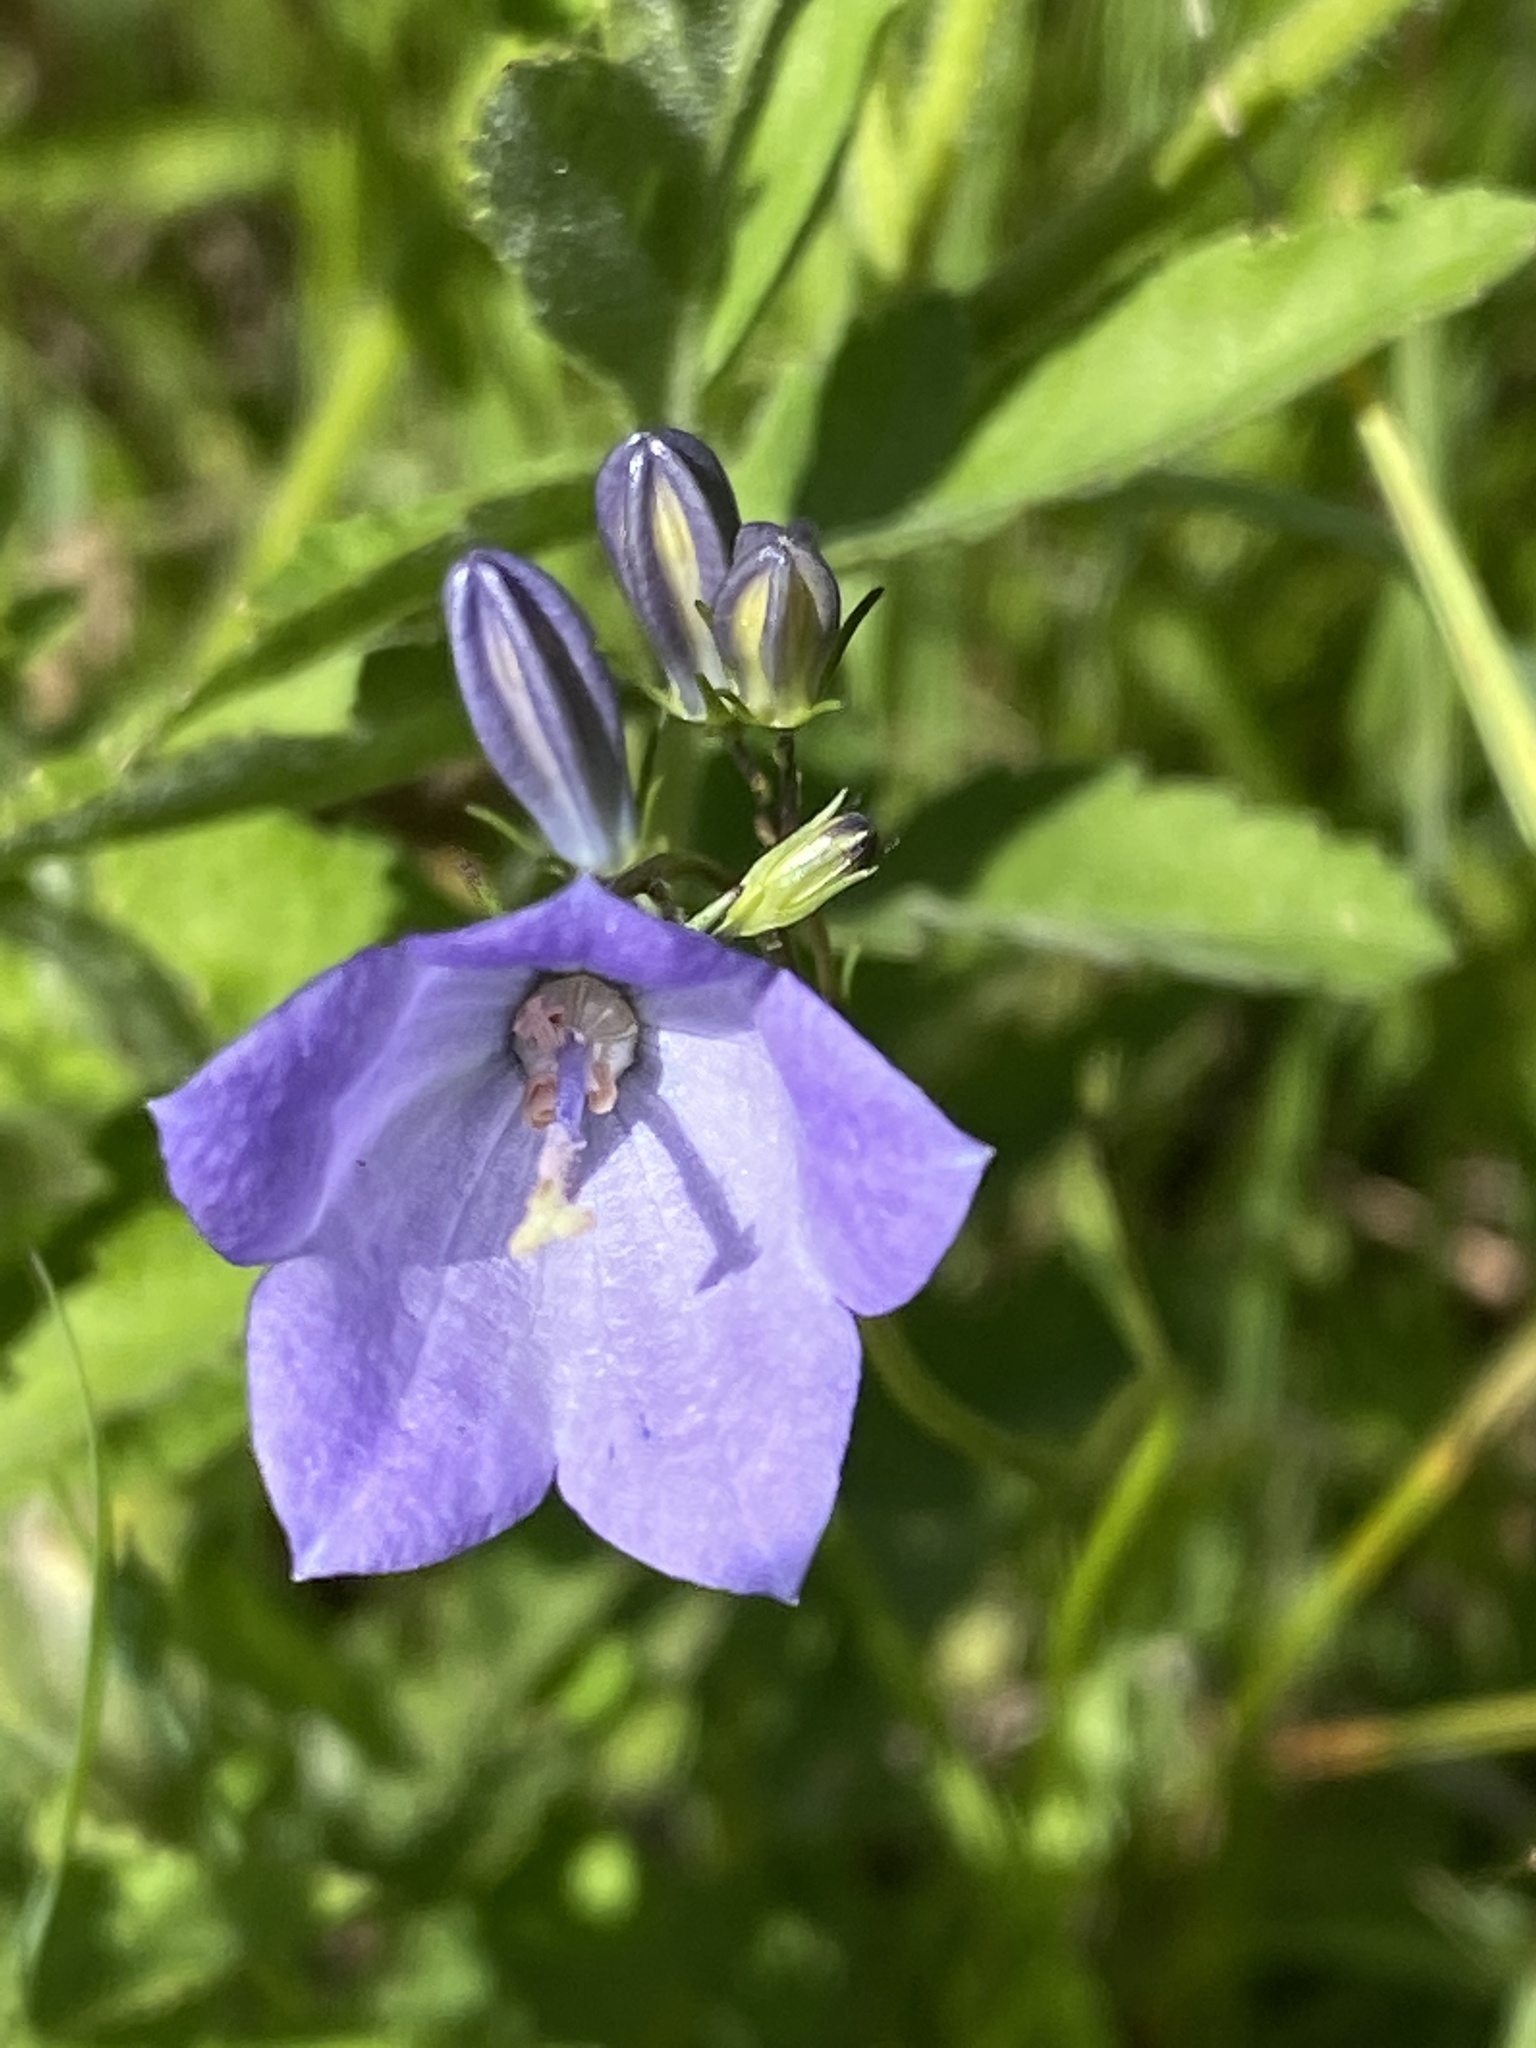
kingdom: Plantae
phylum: Tracheophyta
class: Magnoliopsida
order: Asterales
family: Campanulaceae
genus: Campanula
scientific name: Campanula rotundifolia
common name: Harebell
